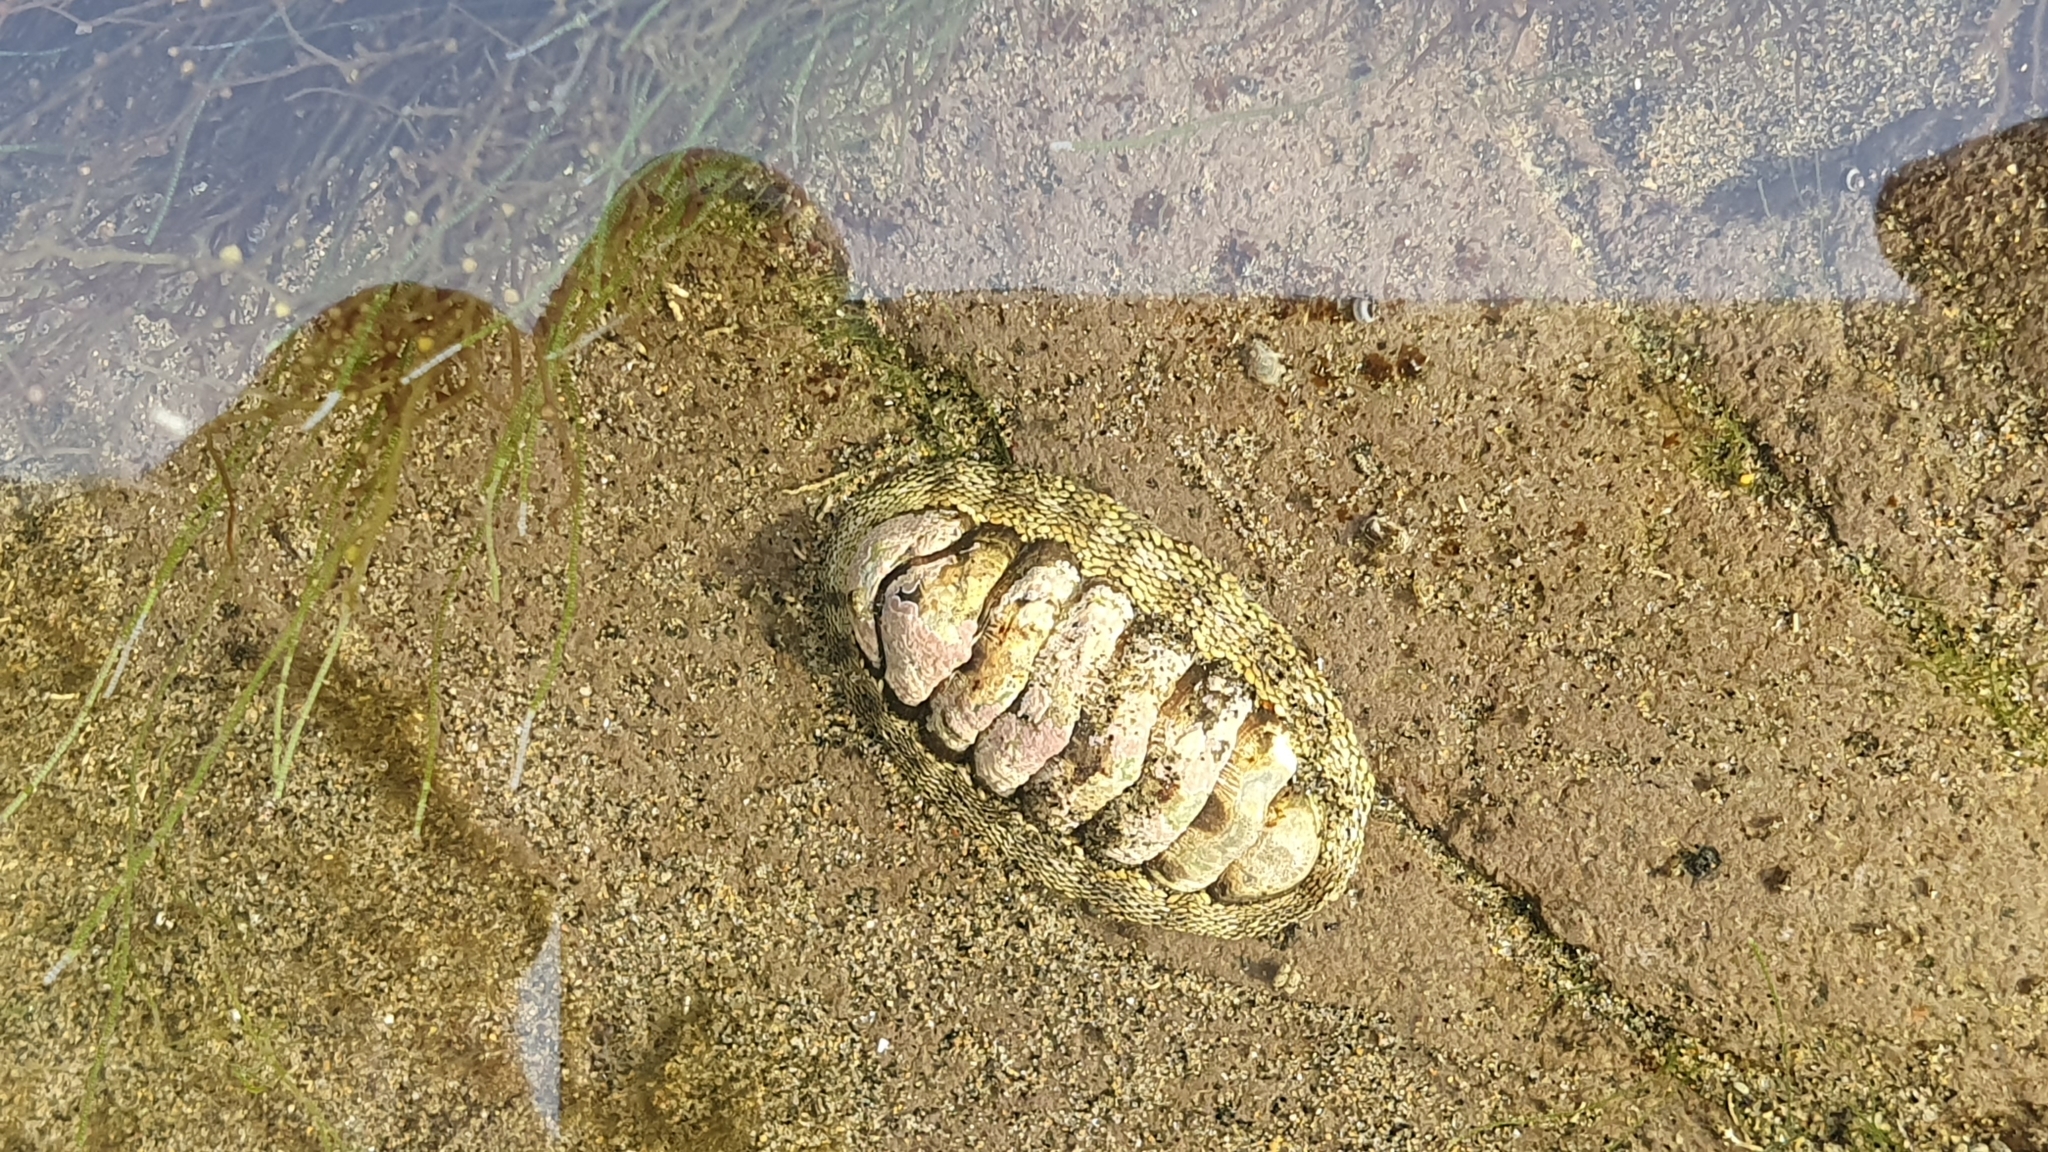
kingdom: Animalia
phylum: Mollusca
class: Polyplacophora
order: Chitonida
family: Chitonidae
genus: Sypharochiton
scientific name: Sypharochiton pelliserpentis
